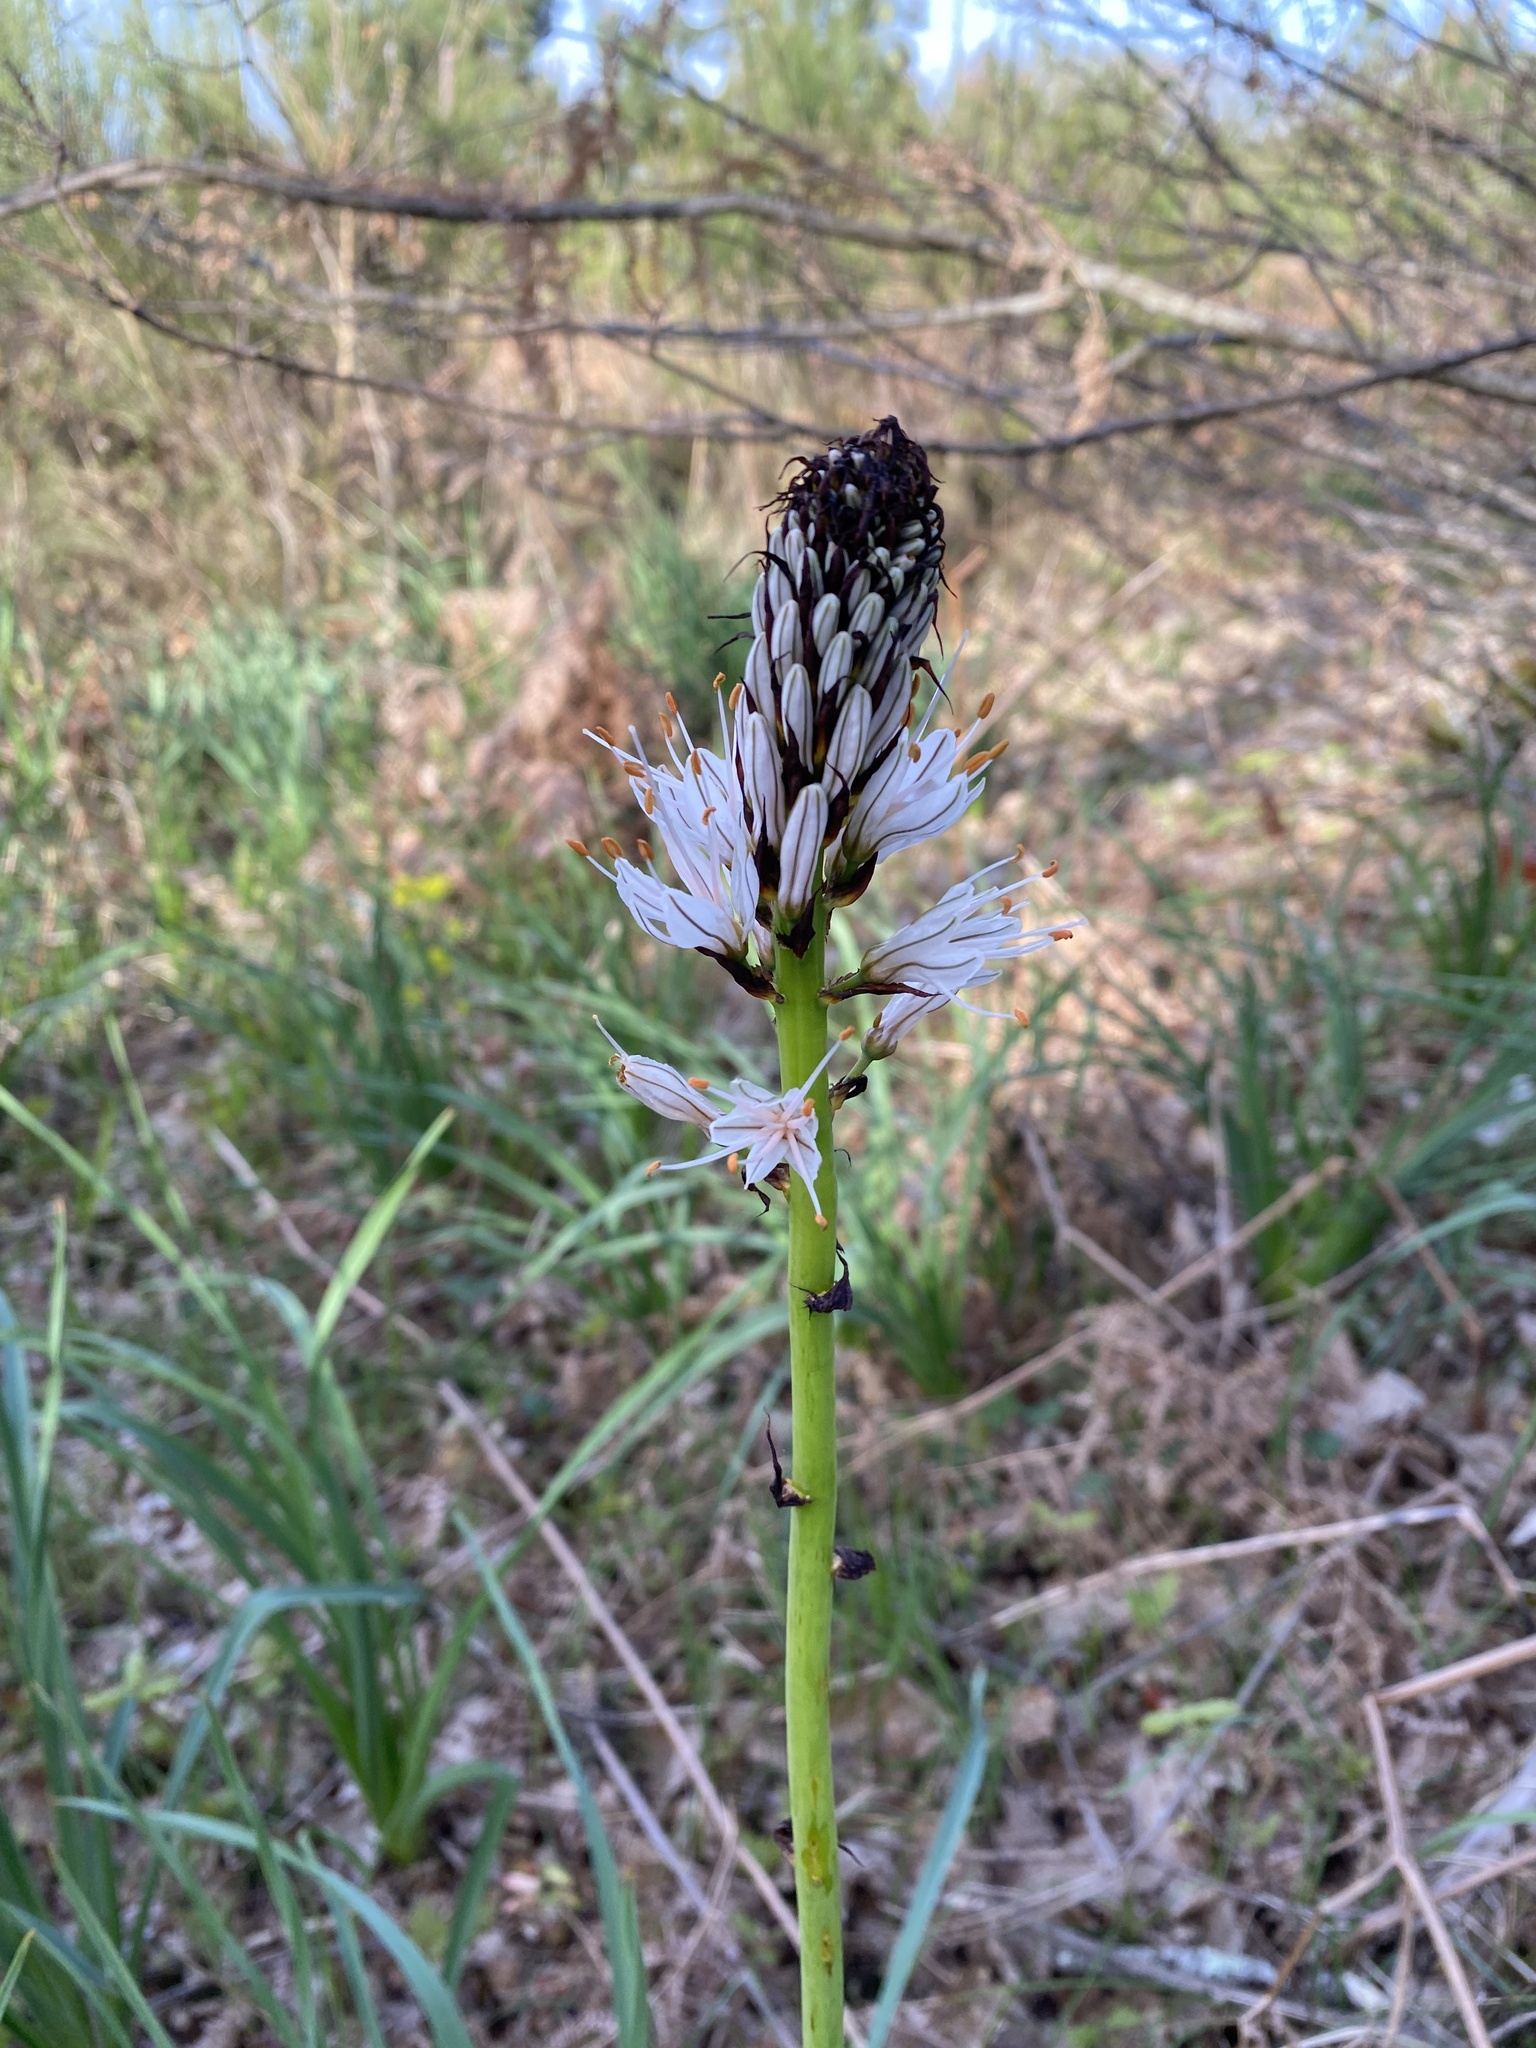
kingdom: Plantae
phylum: Tracheophyta
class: Liliopsida
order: Asparagales
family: Asphodelaceae
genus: Asphodelus
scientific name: Asphodelus albus
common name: White asphodel
